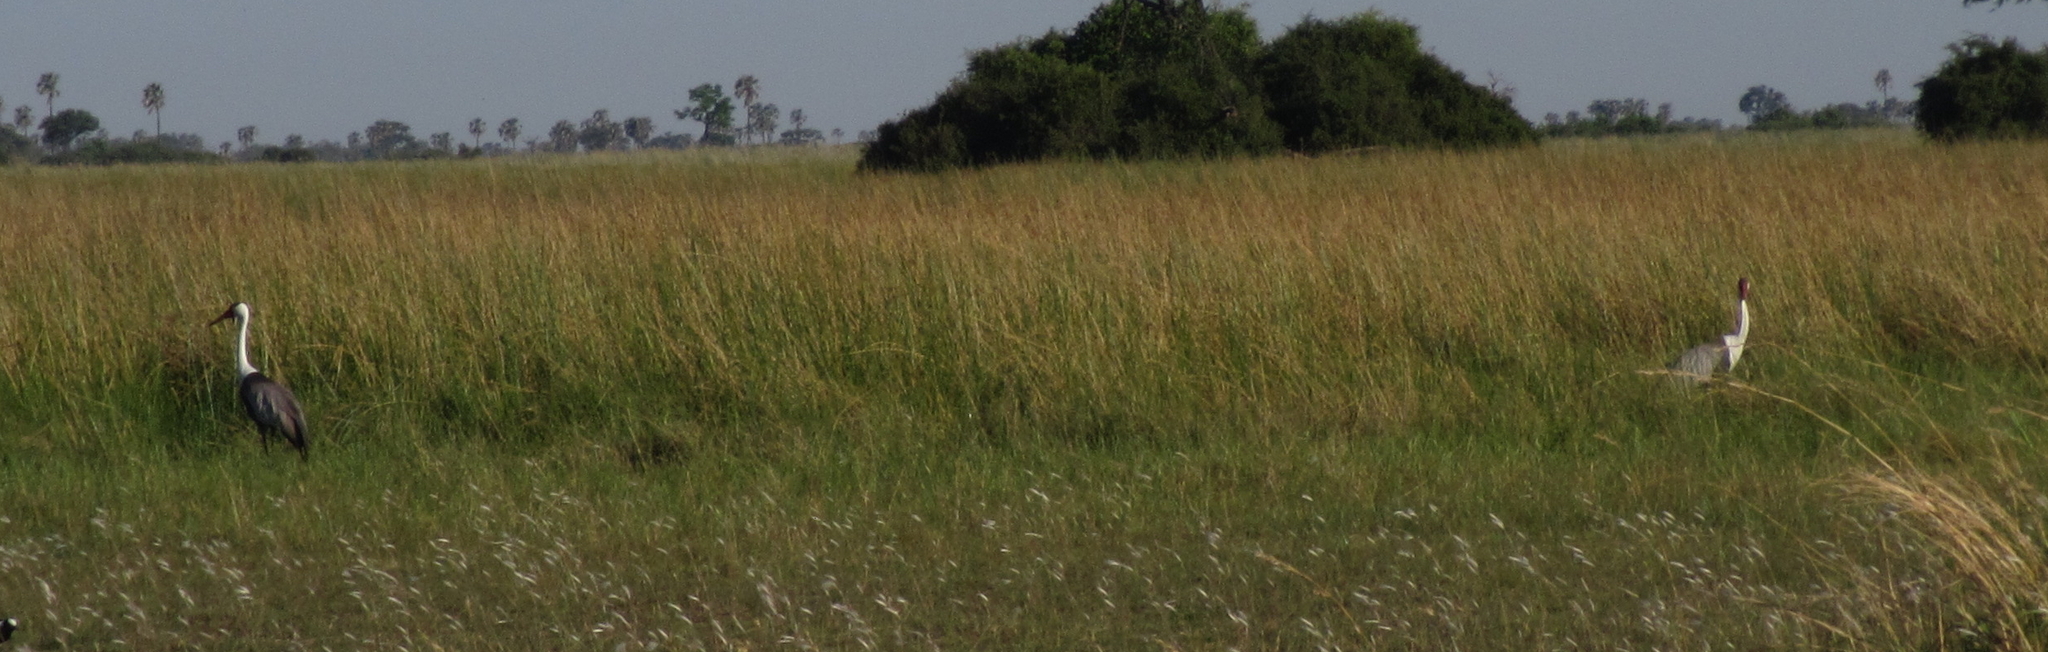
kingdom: Animalia
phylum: Chordata
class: Aves
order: Gruiformes
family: Gruidae
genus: Bugeranus
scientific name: Bugeranus carunculatus
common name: Wattled crane
